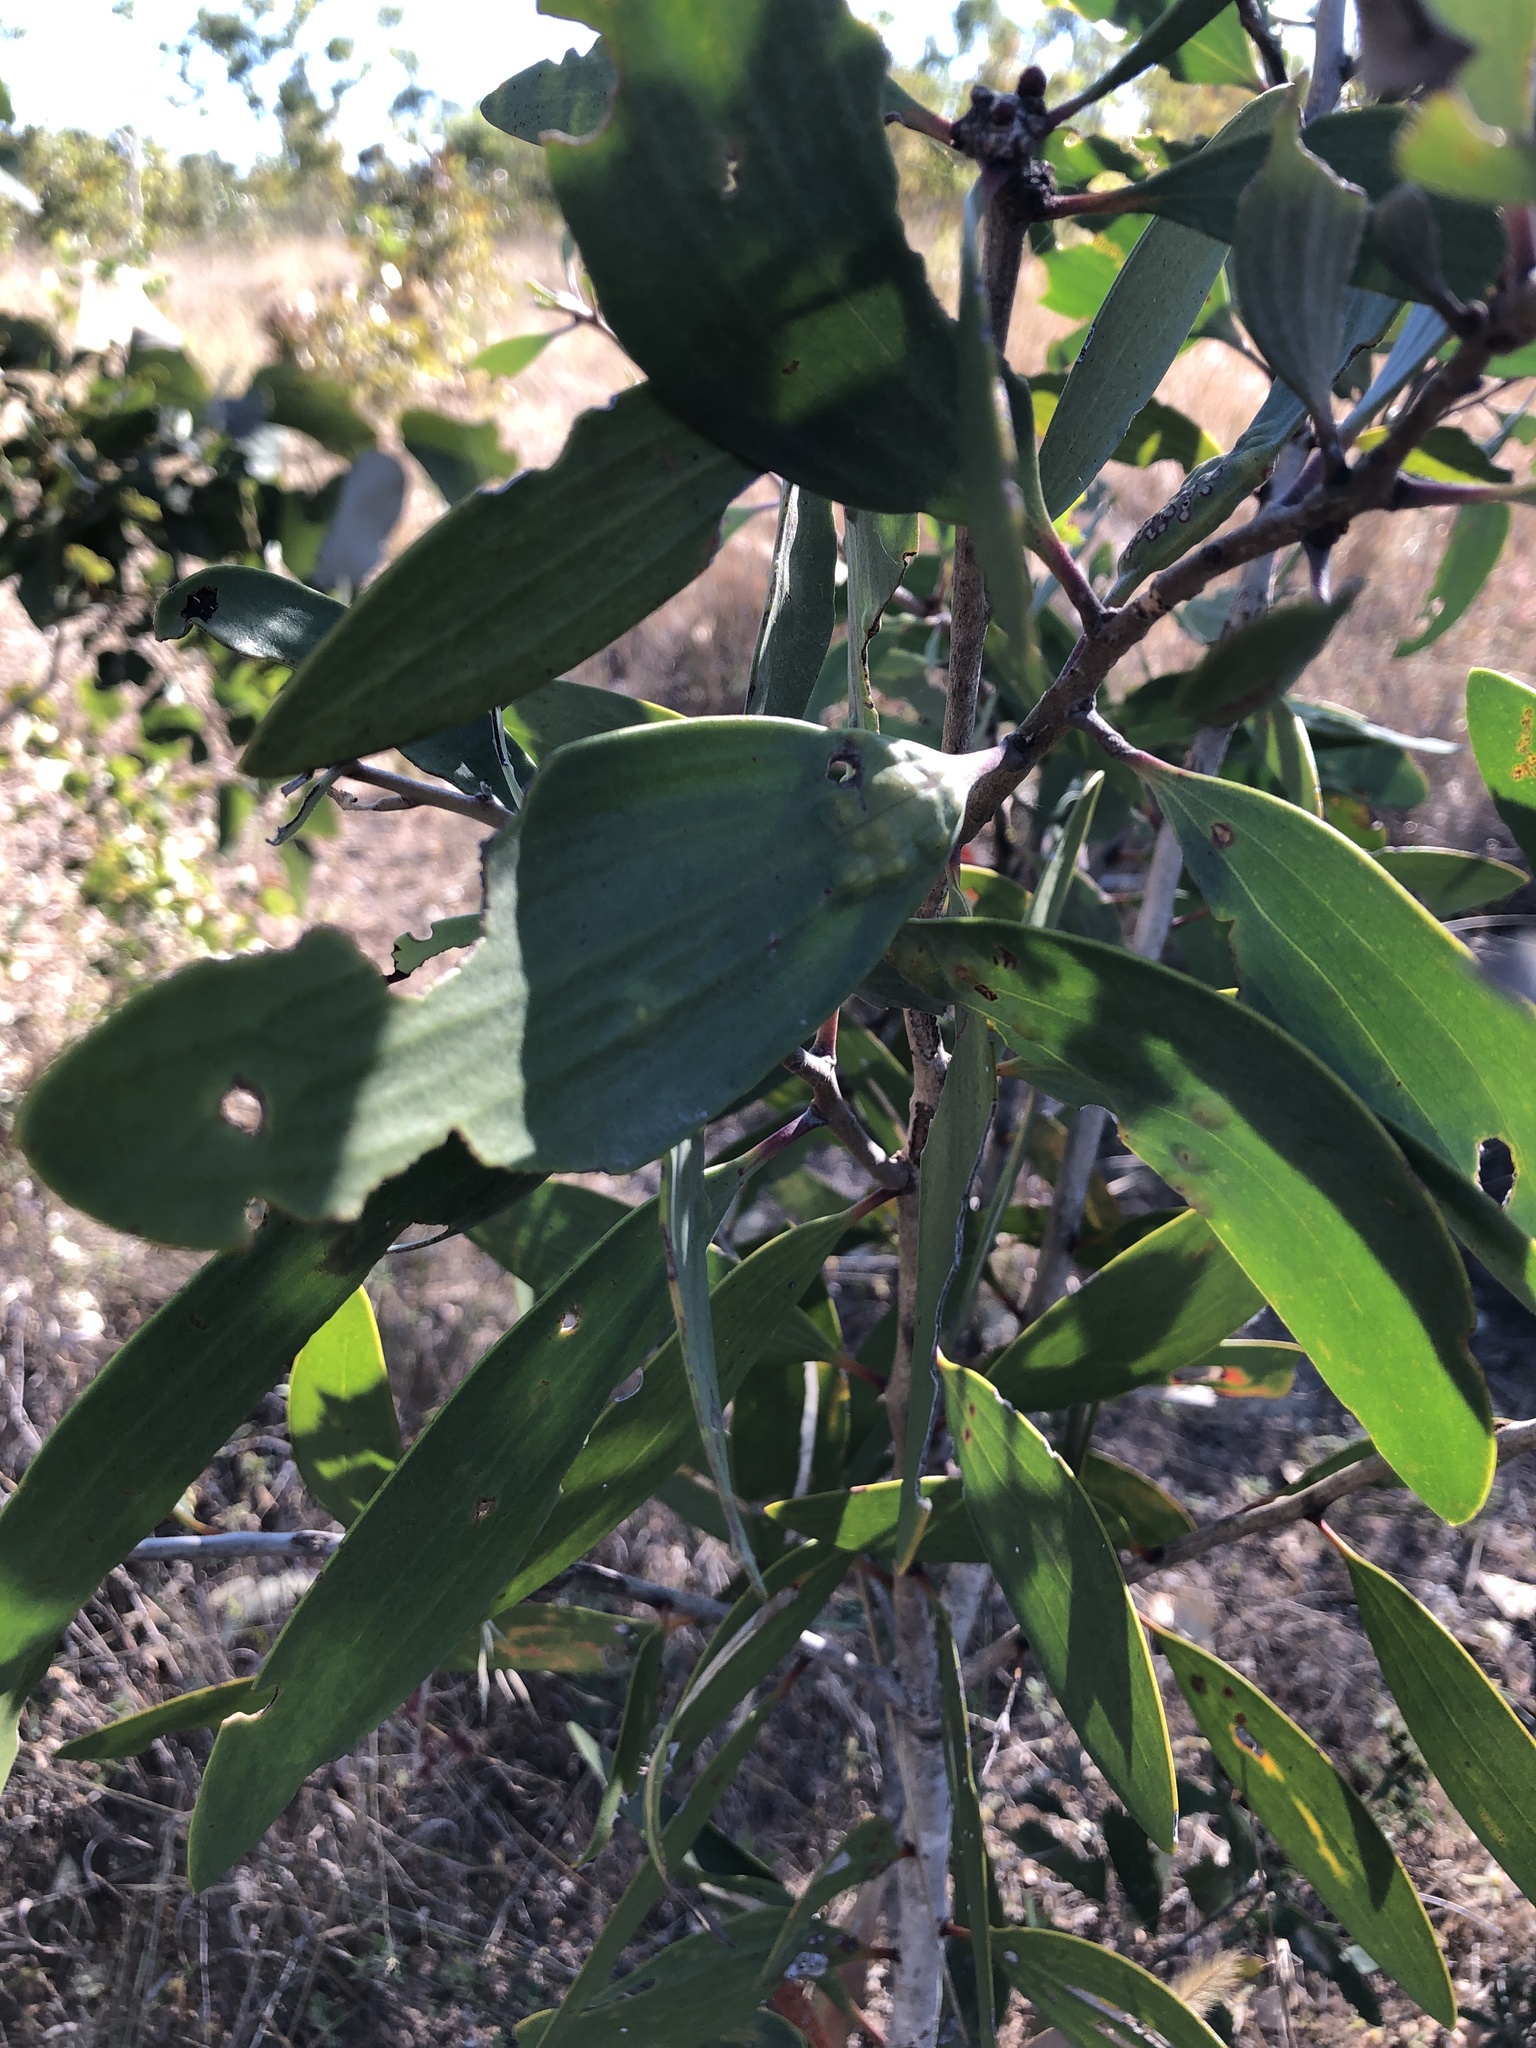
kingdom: Plantae
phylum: Tracheophyta
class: Magnoliopsida
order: Myrtales
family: Myrtaceae
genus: Melaleuca
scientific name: Melaleuca viridiflora
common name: Brown-leaved paperbark
